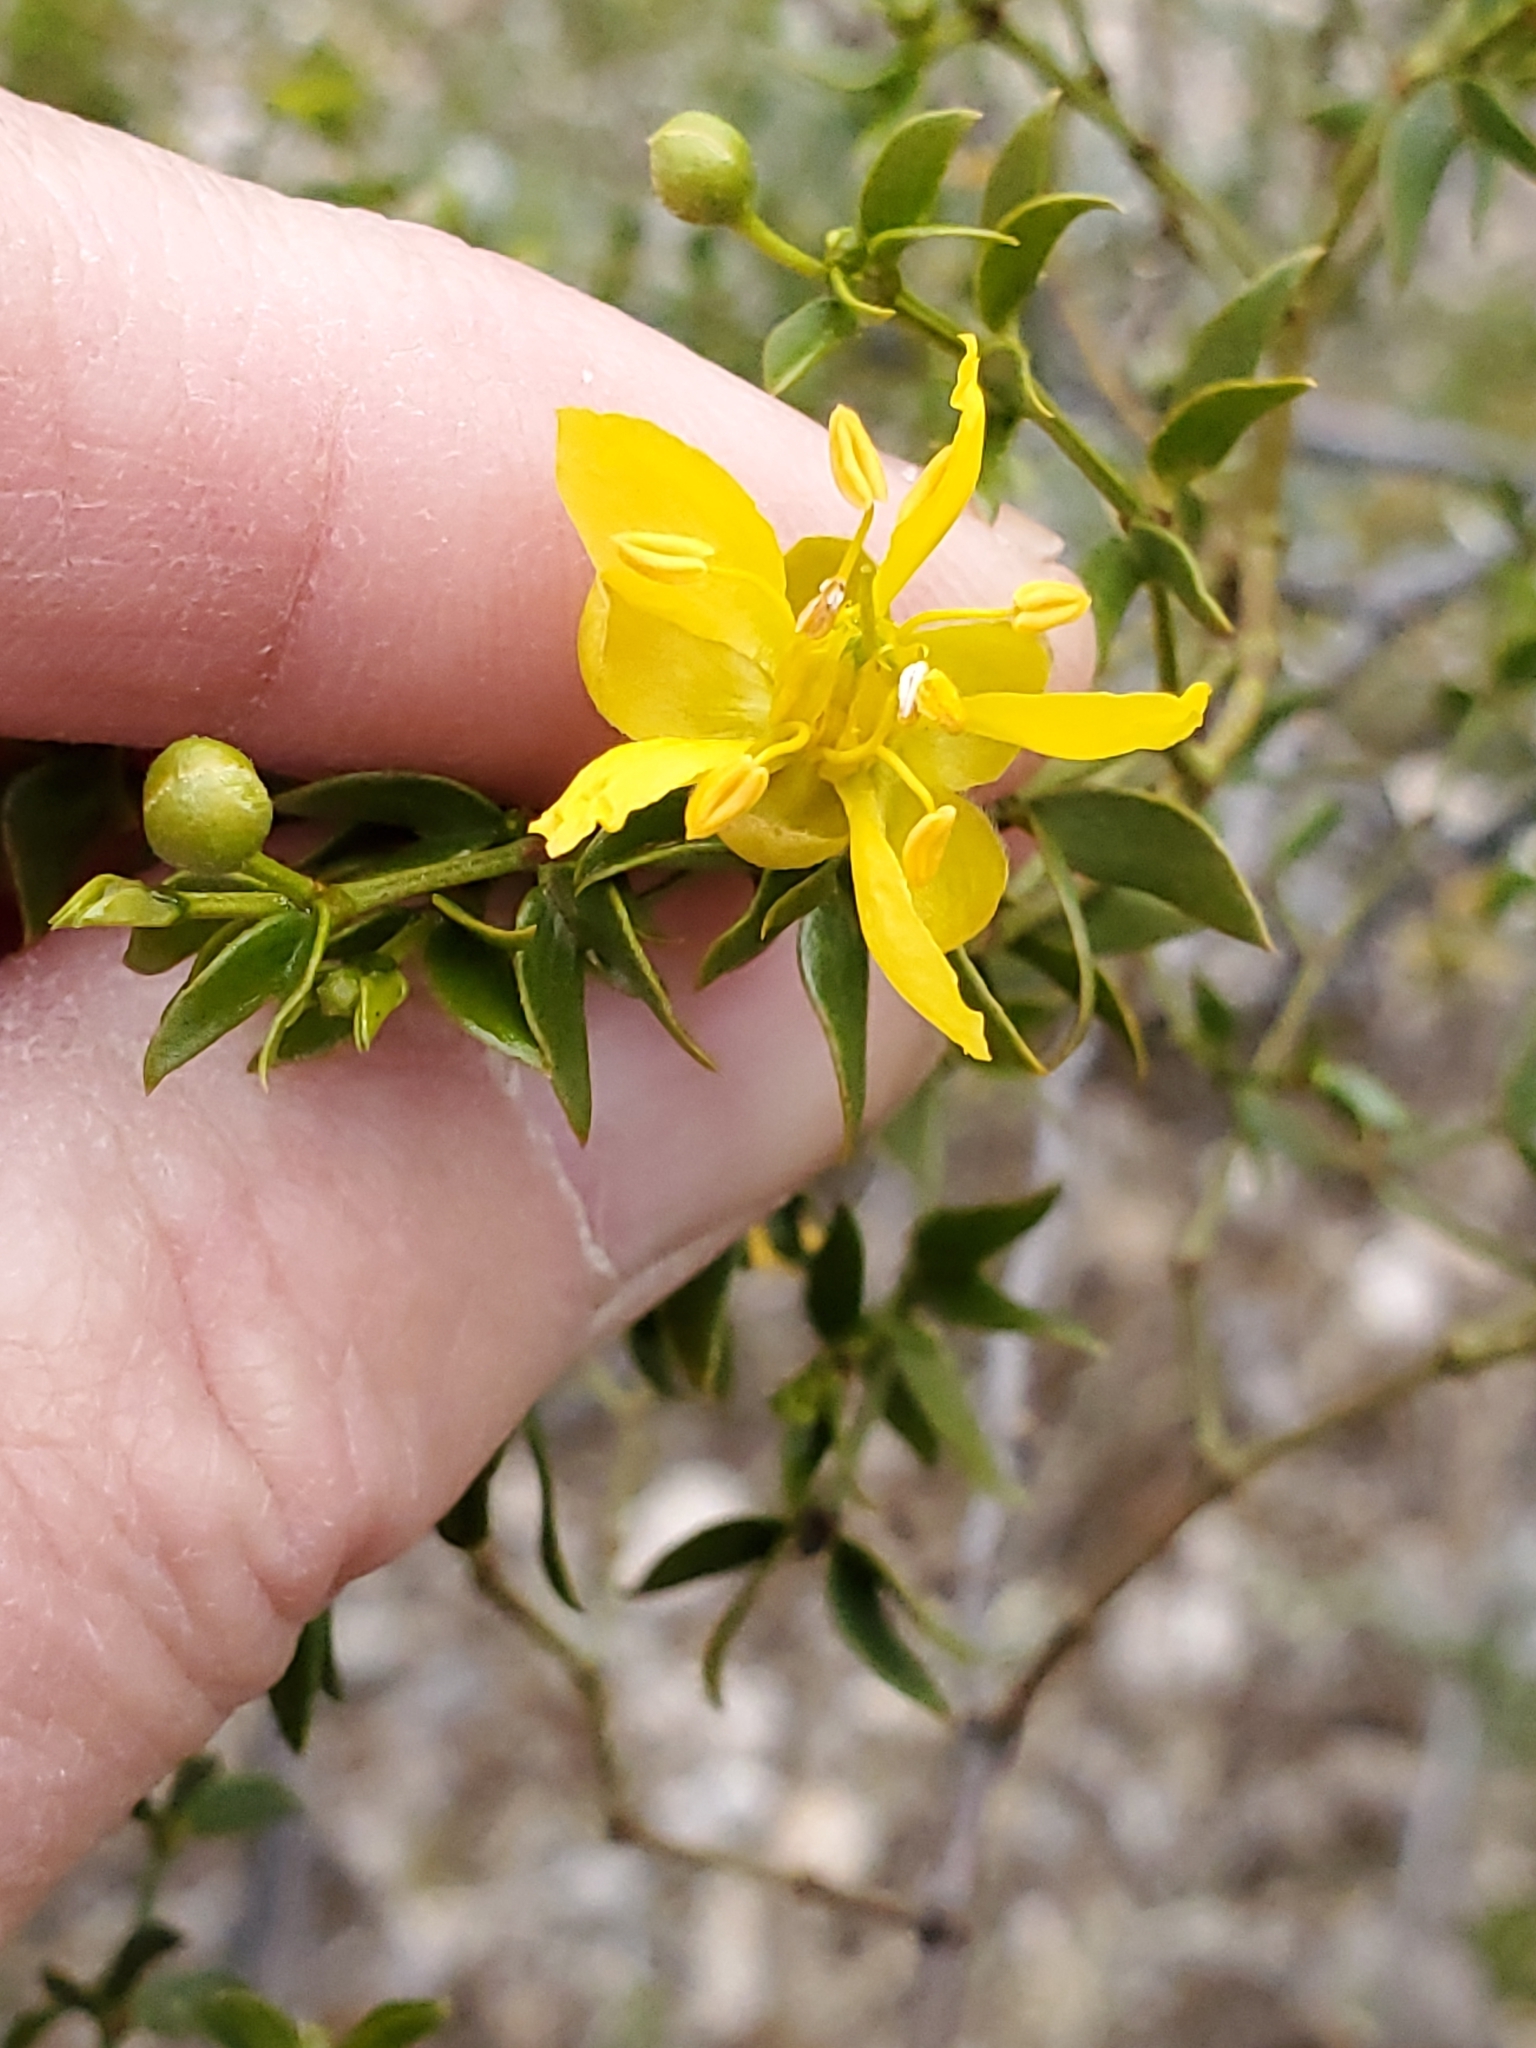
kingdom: Plantae
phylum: Tracheophyta
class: Magnoliopsida
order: Zygophyllales
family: Zygophyllaceae
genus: Larrea
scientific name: Larrea tridentata
